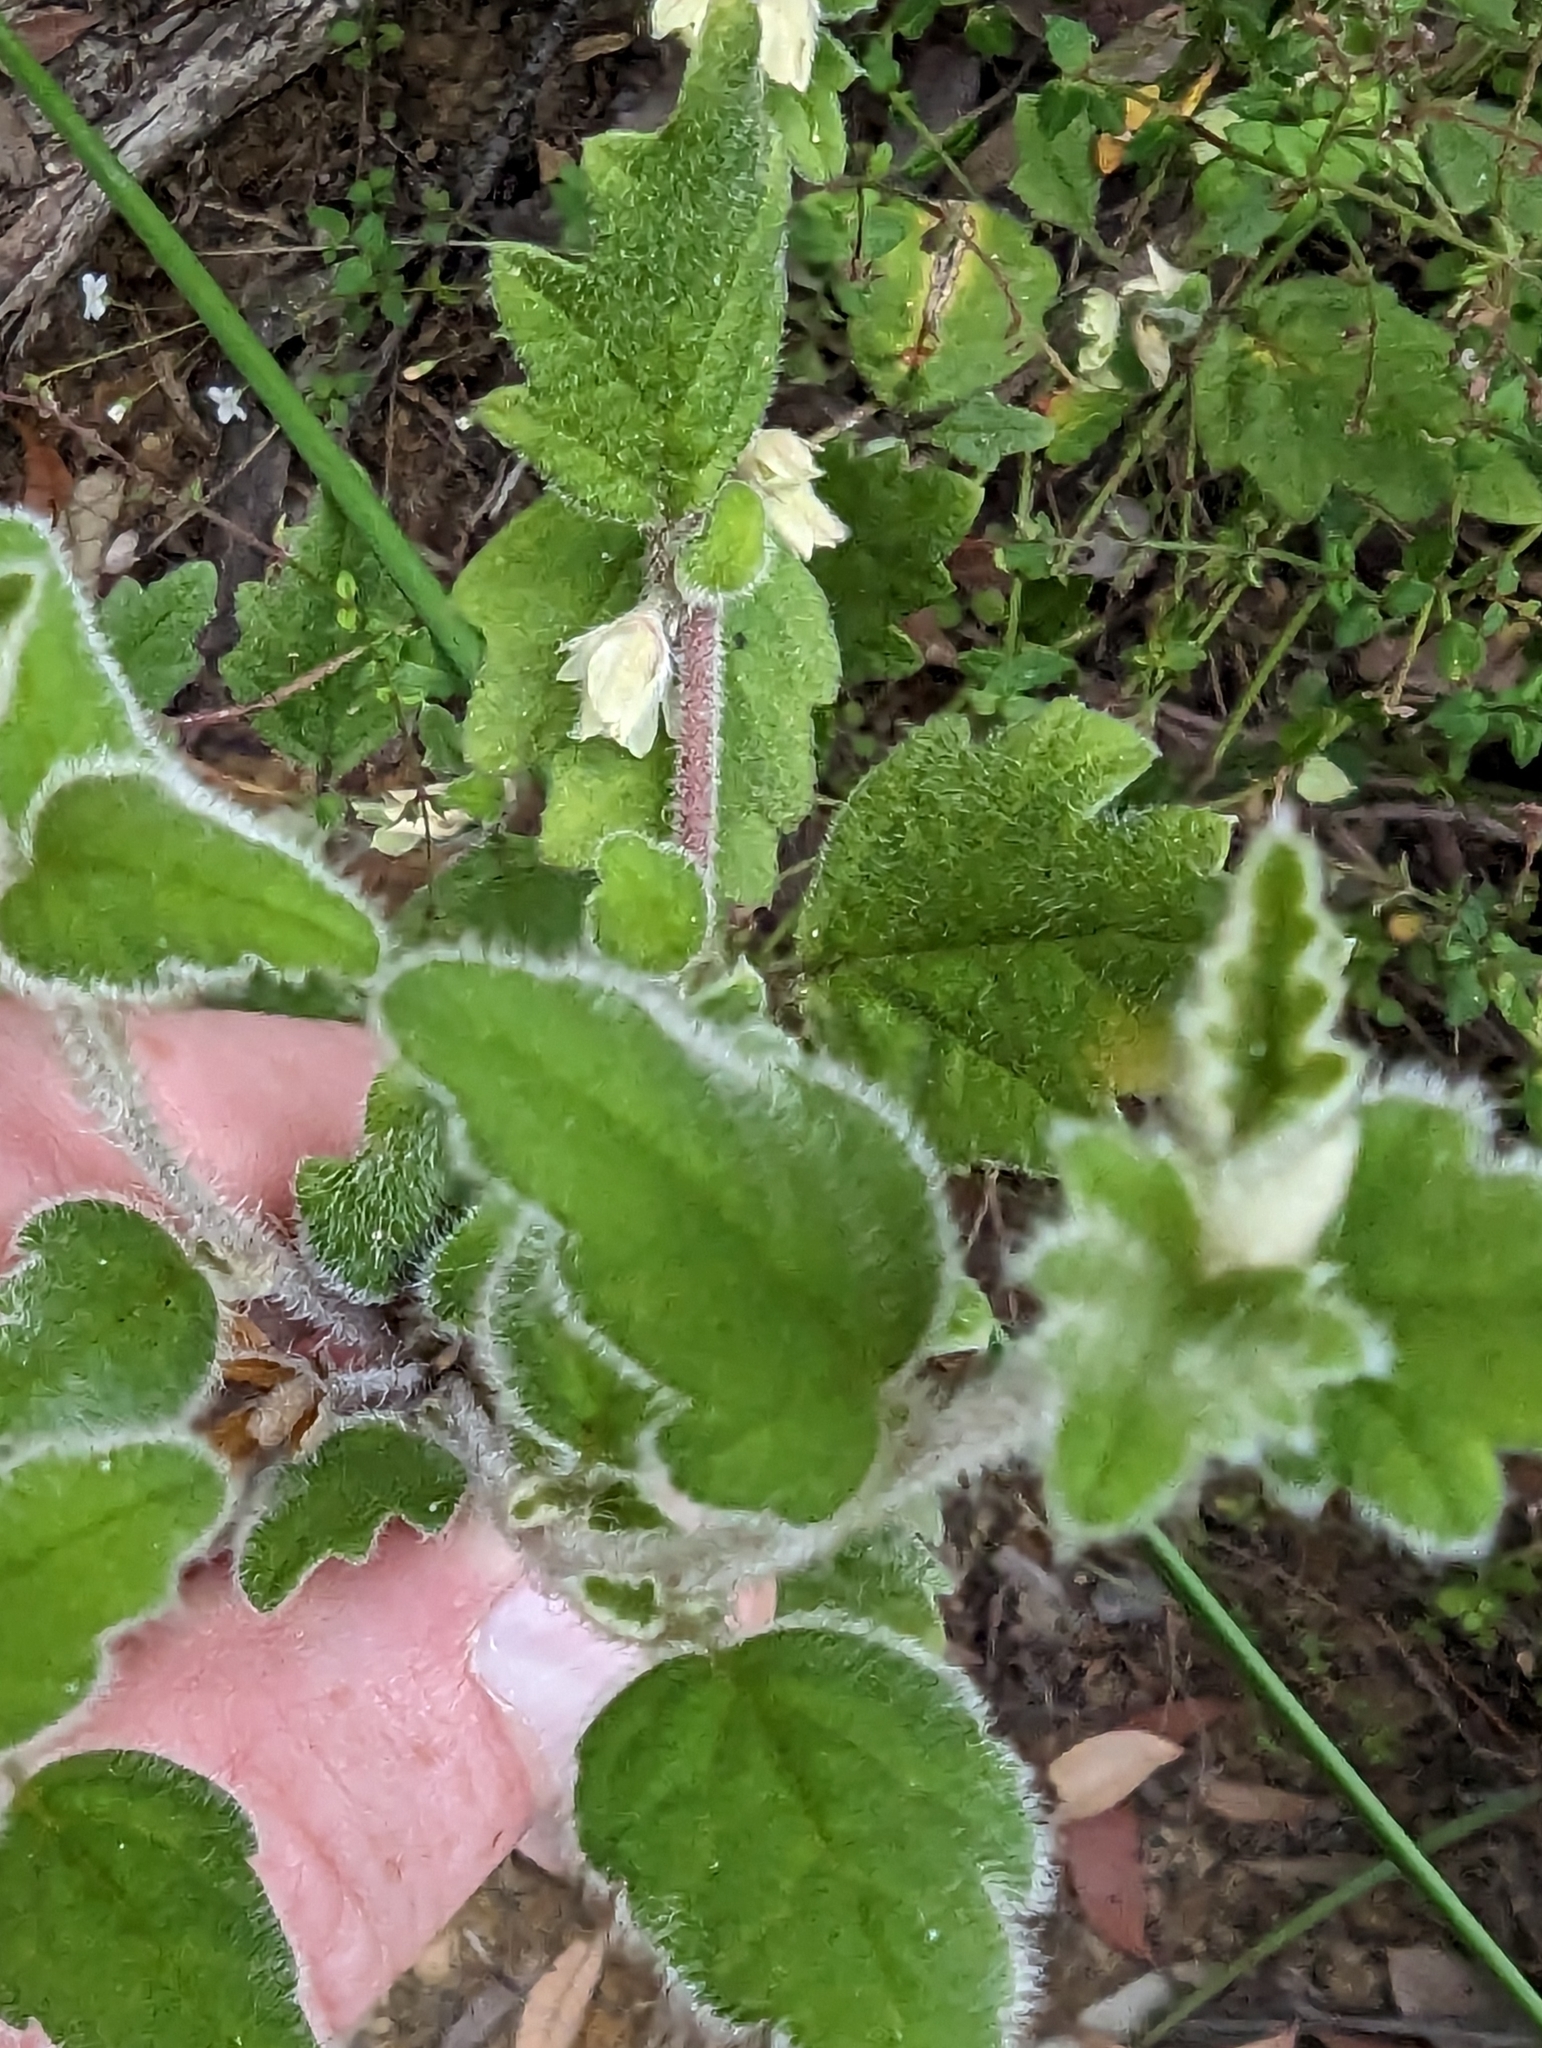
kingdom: Plantae
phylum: Tracheophyta
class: Magnoliopsida
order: Apiales
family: Apiaceae
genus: Xanthosia
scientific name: Xanthosia pilosa
